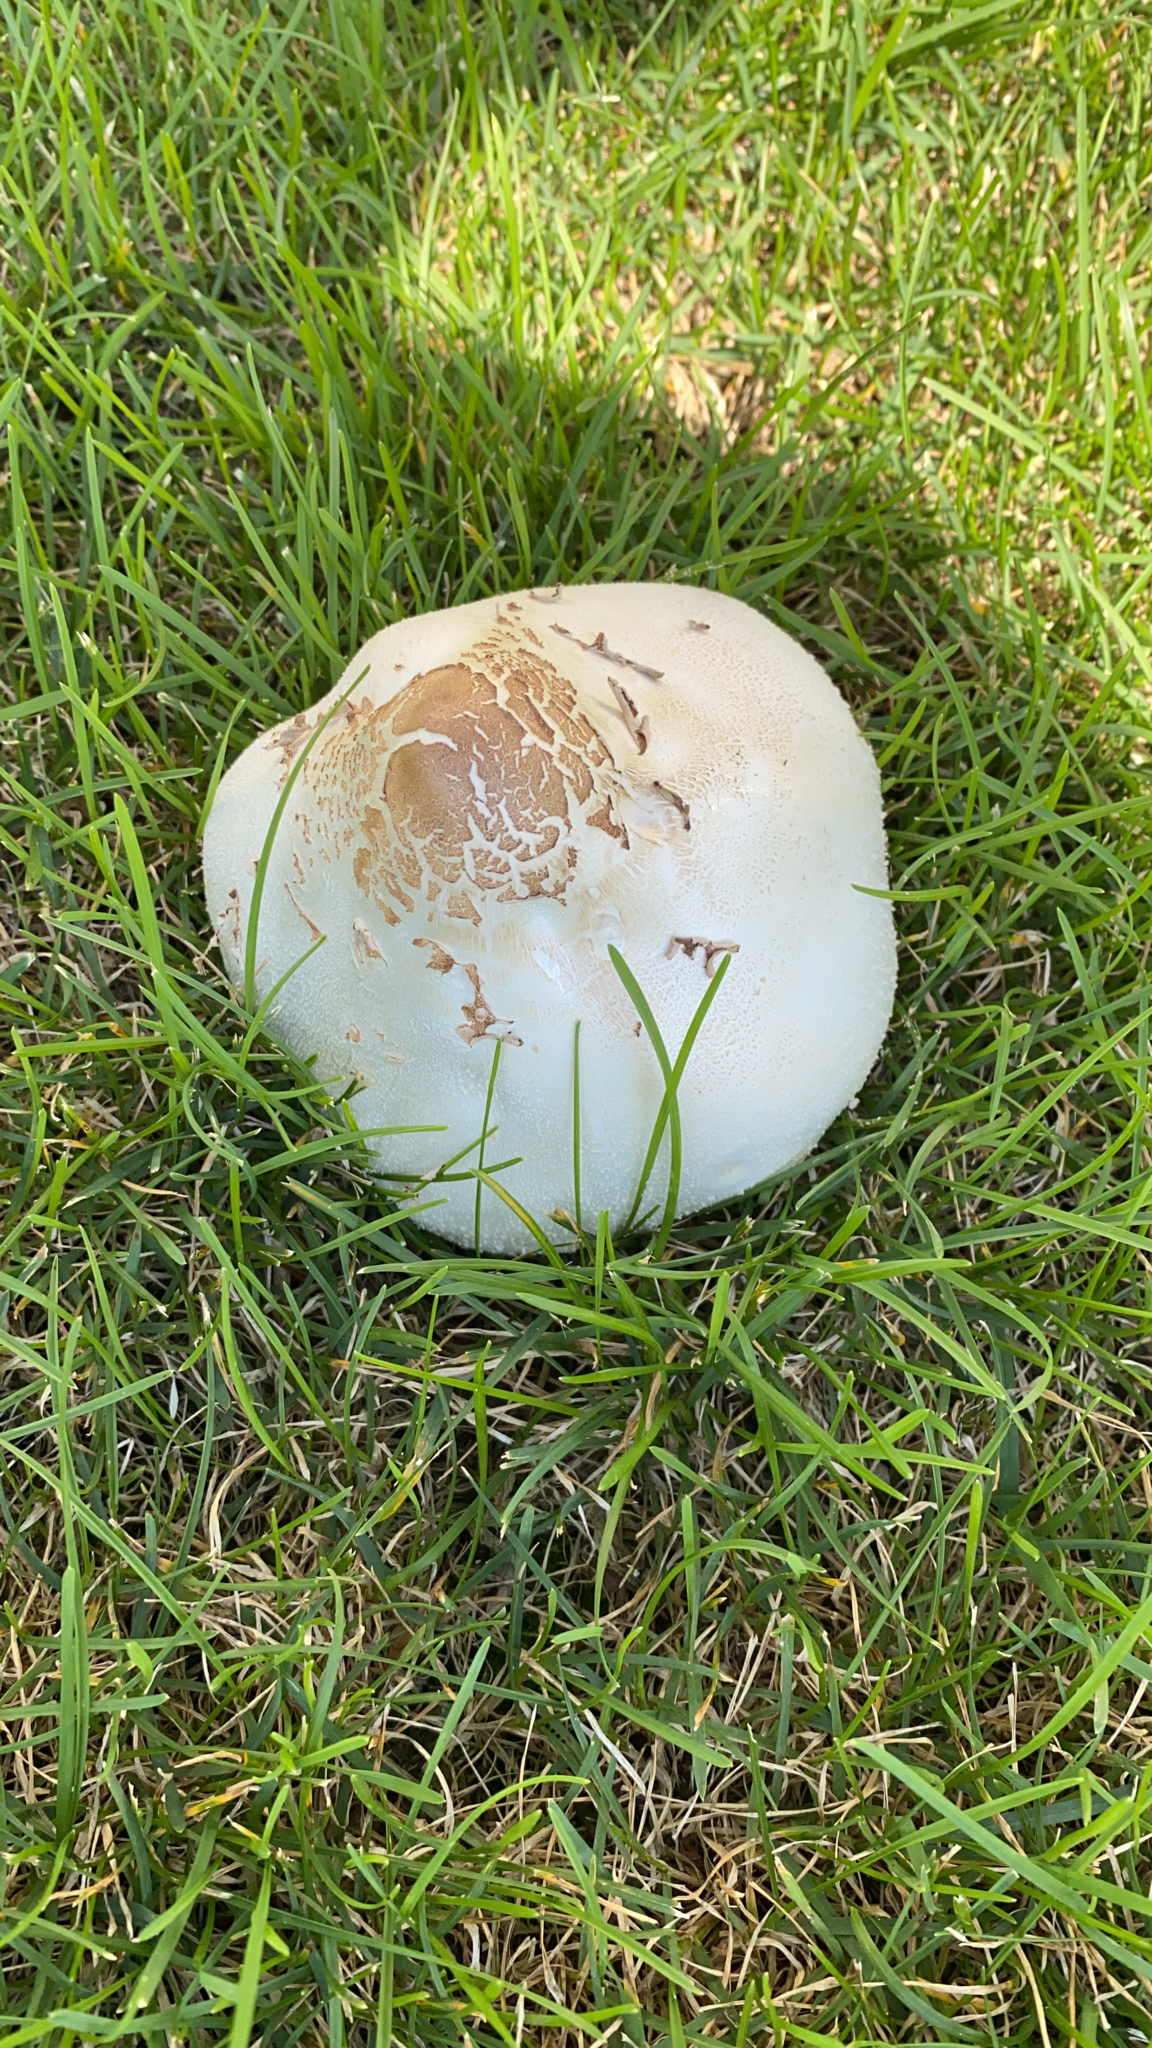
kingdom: Fungi
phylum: Basidiomycota
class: Agaricomycetes
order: Agaricales
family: Agaricaceae
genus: Chlorophyllum
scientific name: Chlorophyllum molybdites
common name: False parasol
